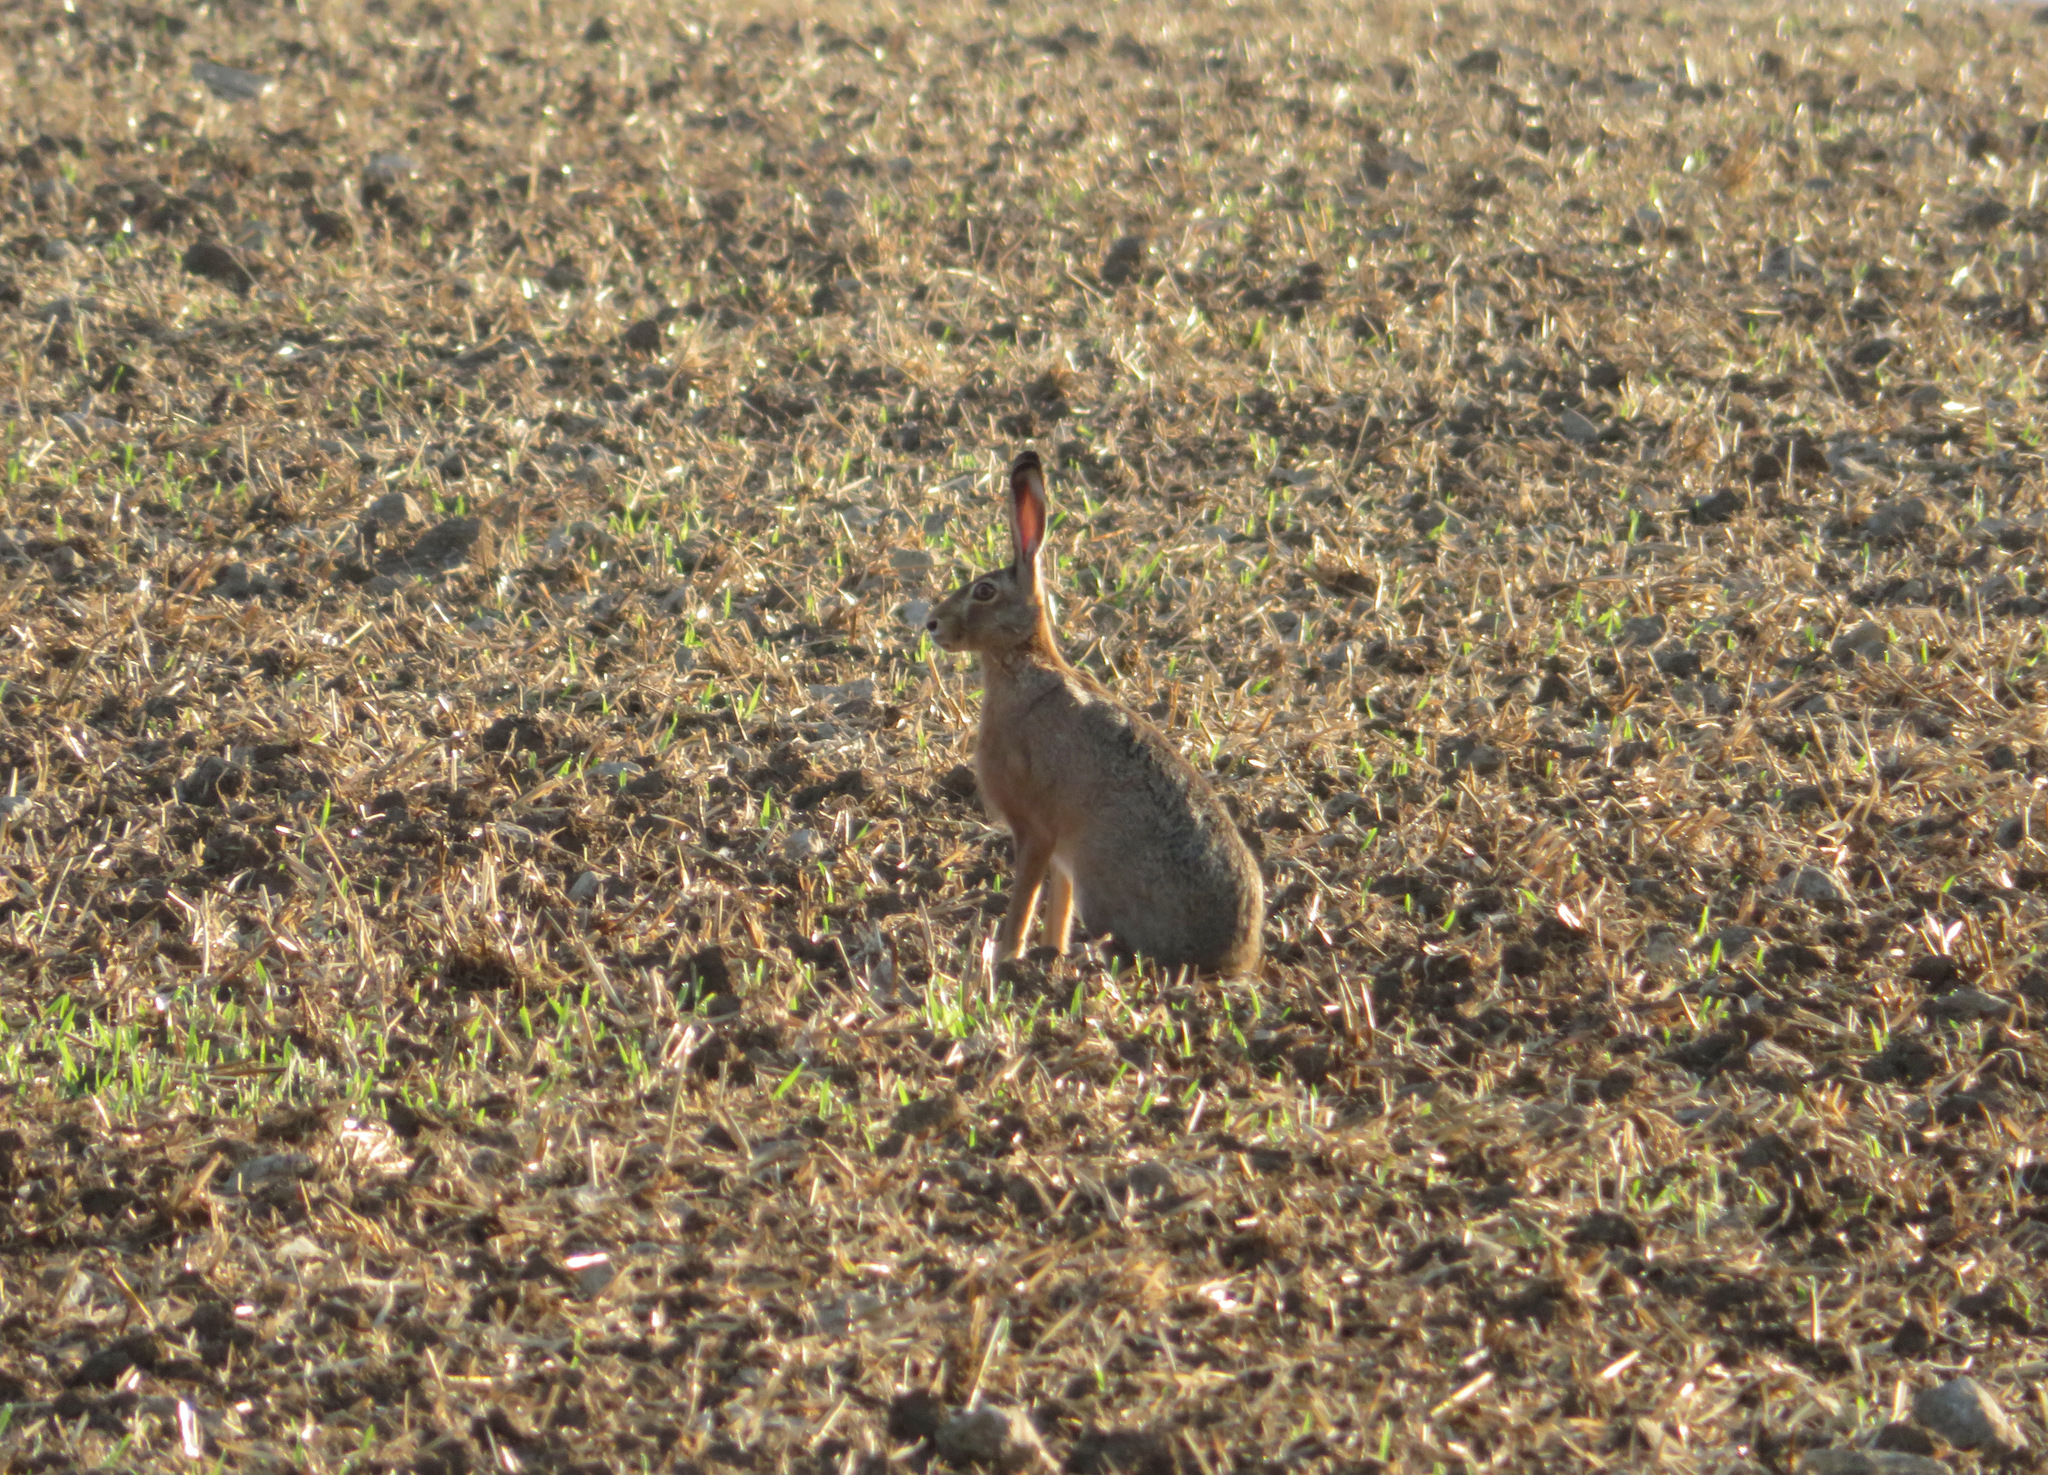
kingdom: Animalia
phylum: Chordata
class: Mammalia
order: Lagomorpha
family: Leporidae
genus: Lepus
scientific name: Lepus europaeus
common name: European hare
